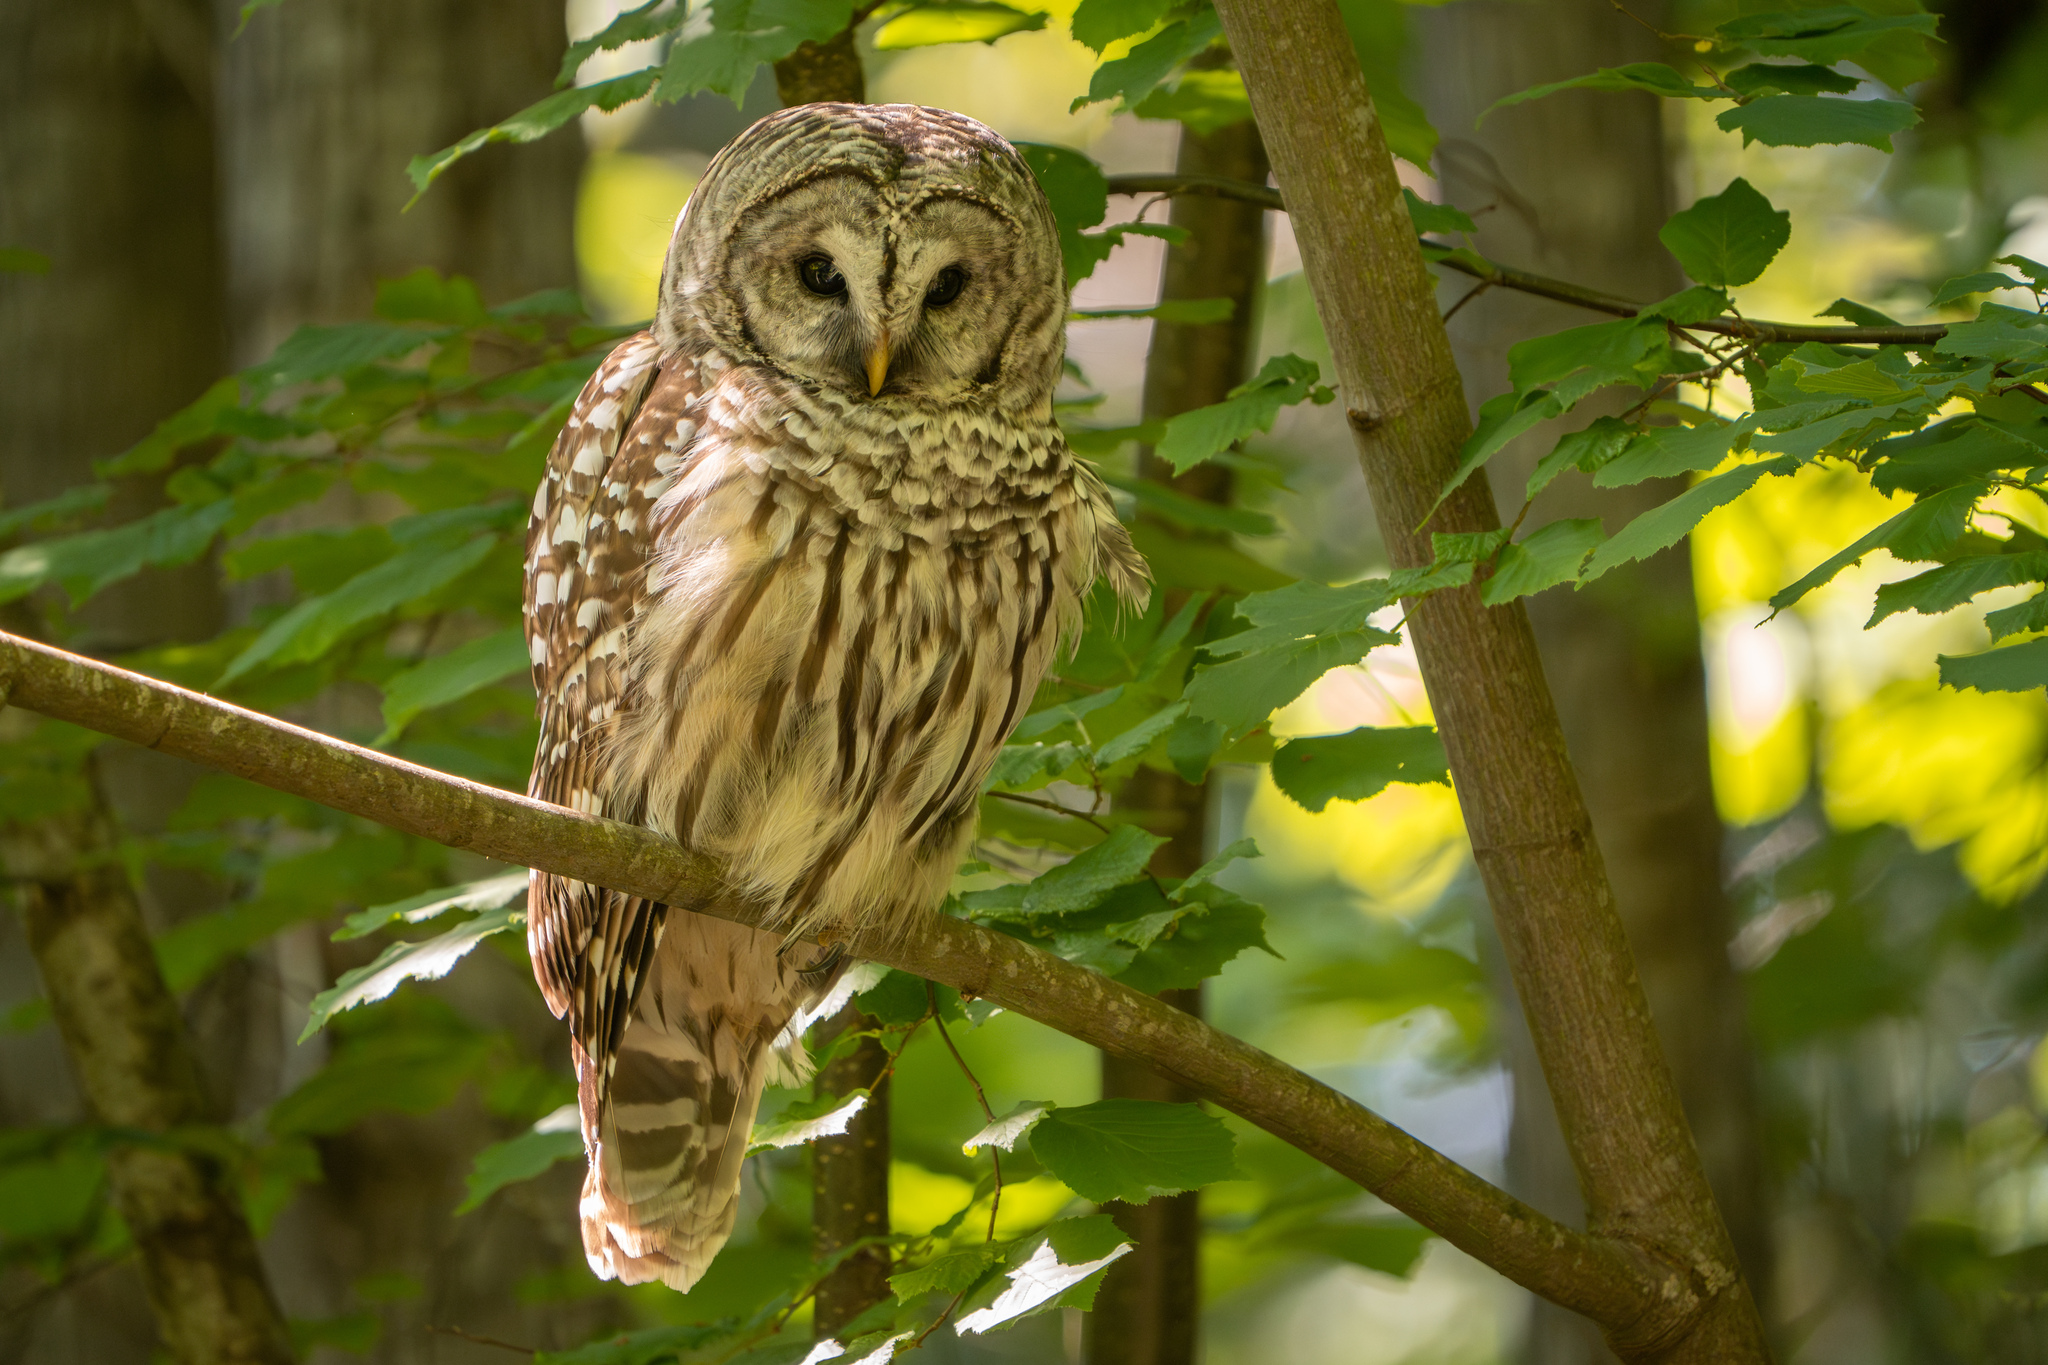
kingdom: Animalia
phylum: Chordata
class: Aves
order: Strigiformes
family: Strigidae
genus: Strix
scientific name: Strix varia
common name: Barred owl
